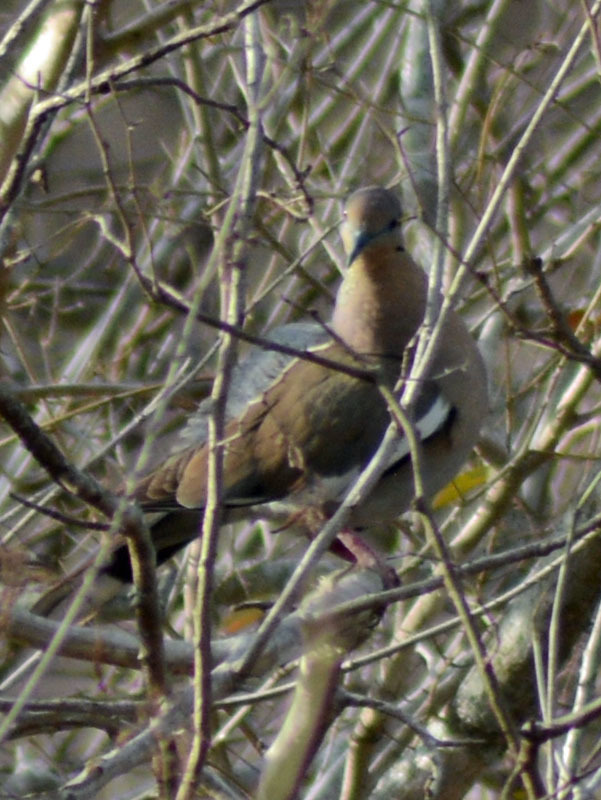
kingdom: Animalia
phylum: Chordata
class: Aves
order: Columbiformes
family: Columbidae
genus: Zenaida
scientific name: Zenaida asiatica
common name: White-winged dove
